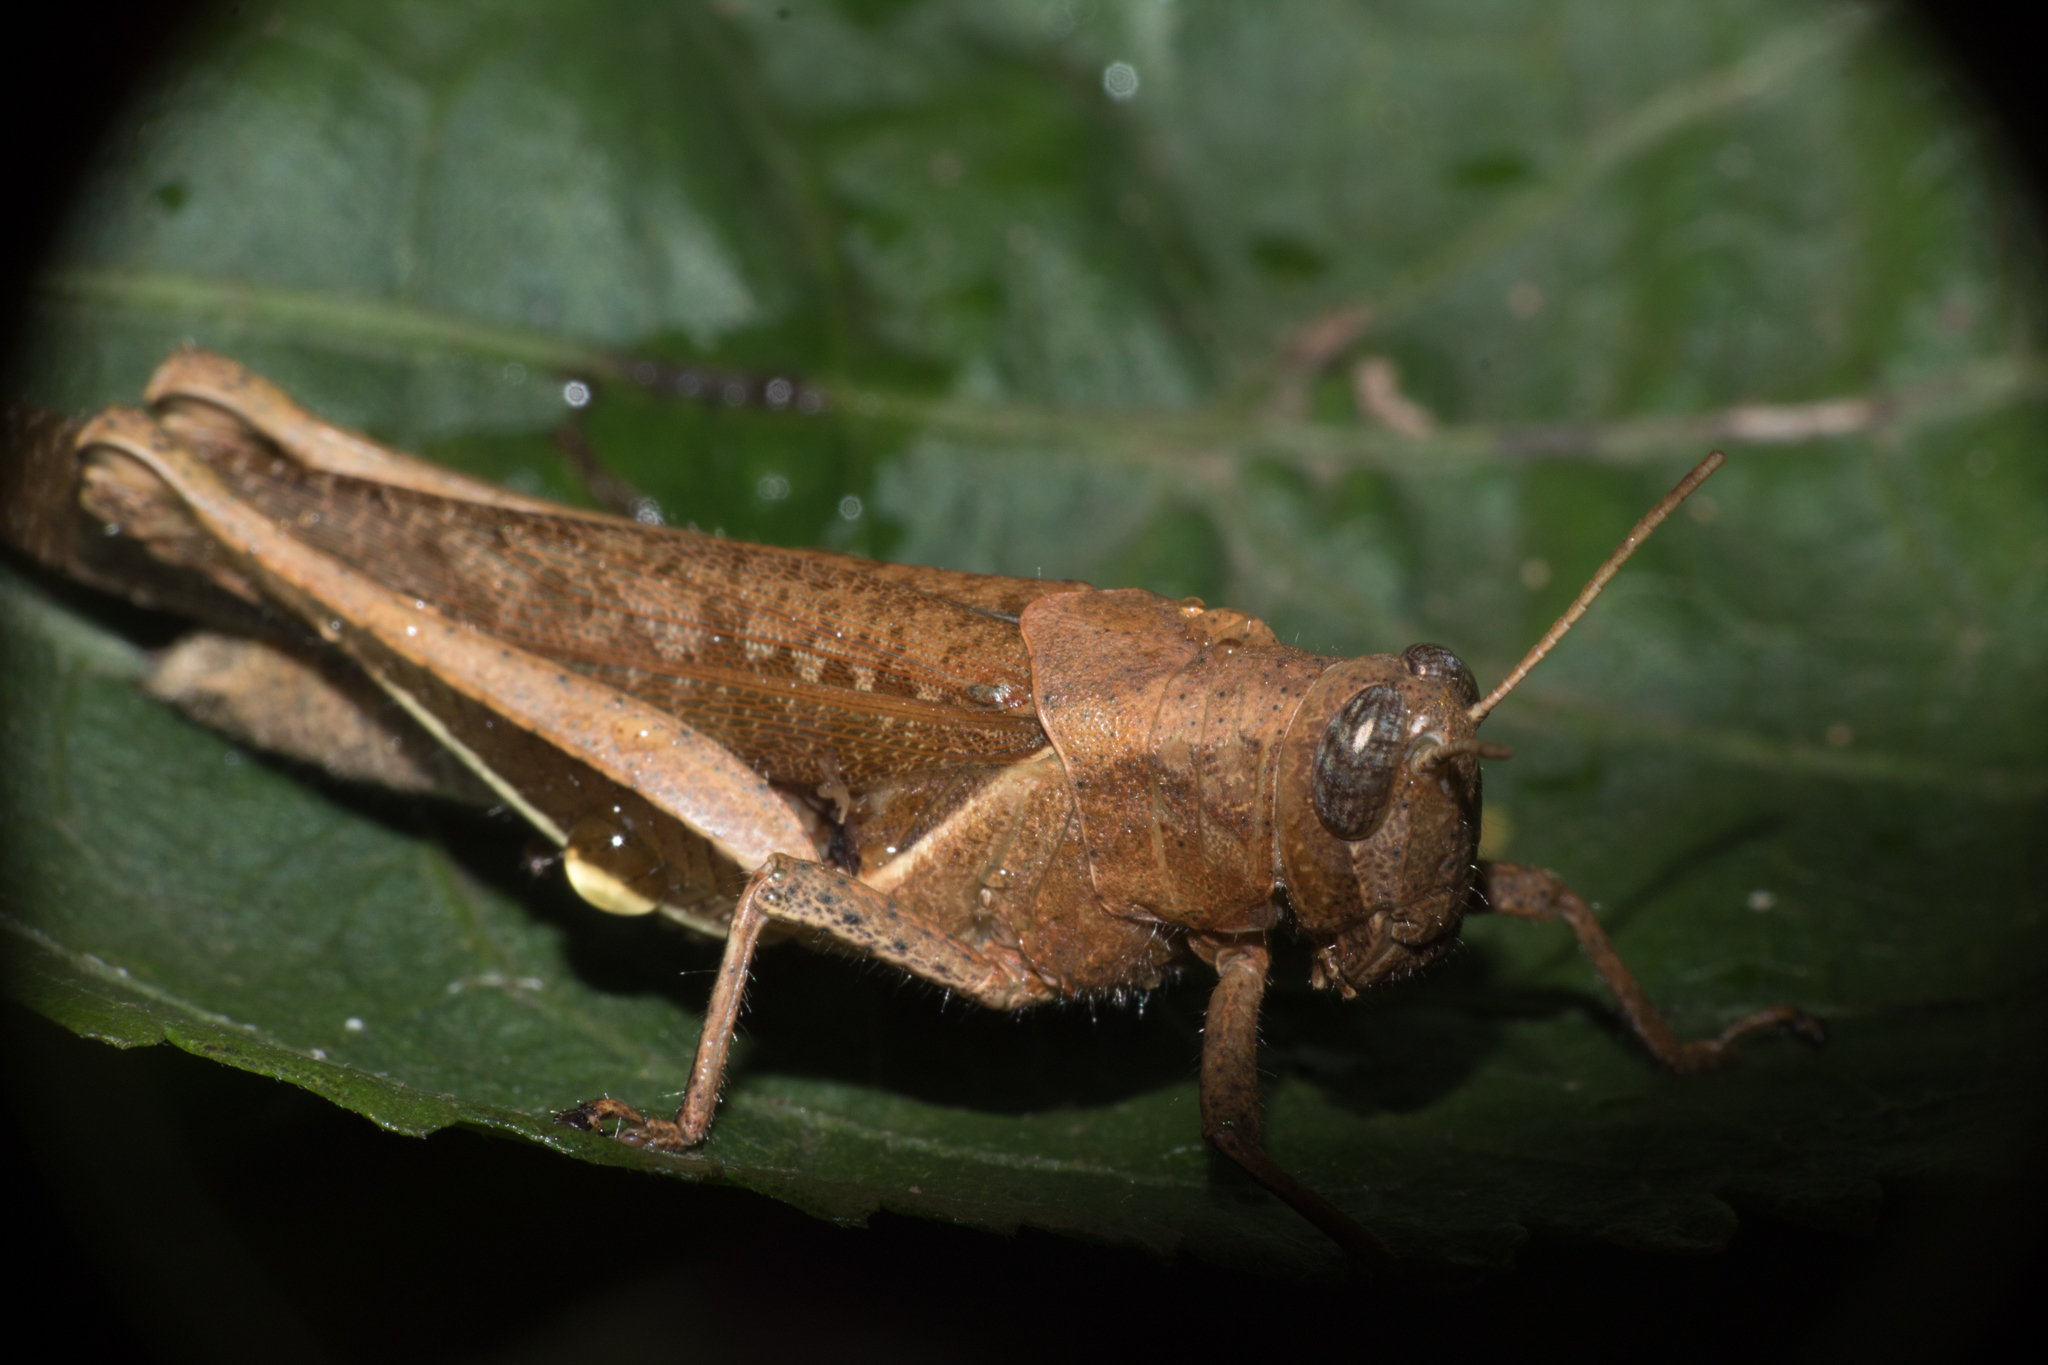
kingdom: Animalia
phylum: Arthropoda
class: Insecta
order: Orthoptera
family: Acrididae
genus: Abracris
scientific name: Abracris flavolineata
